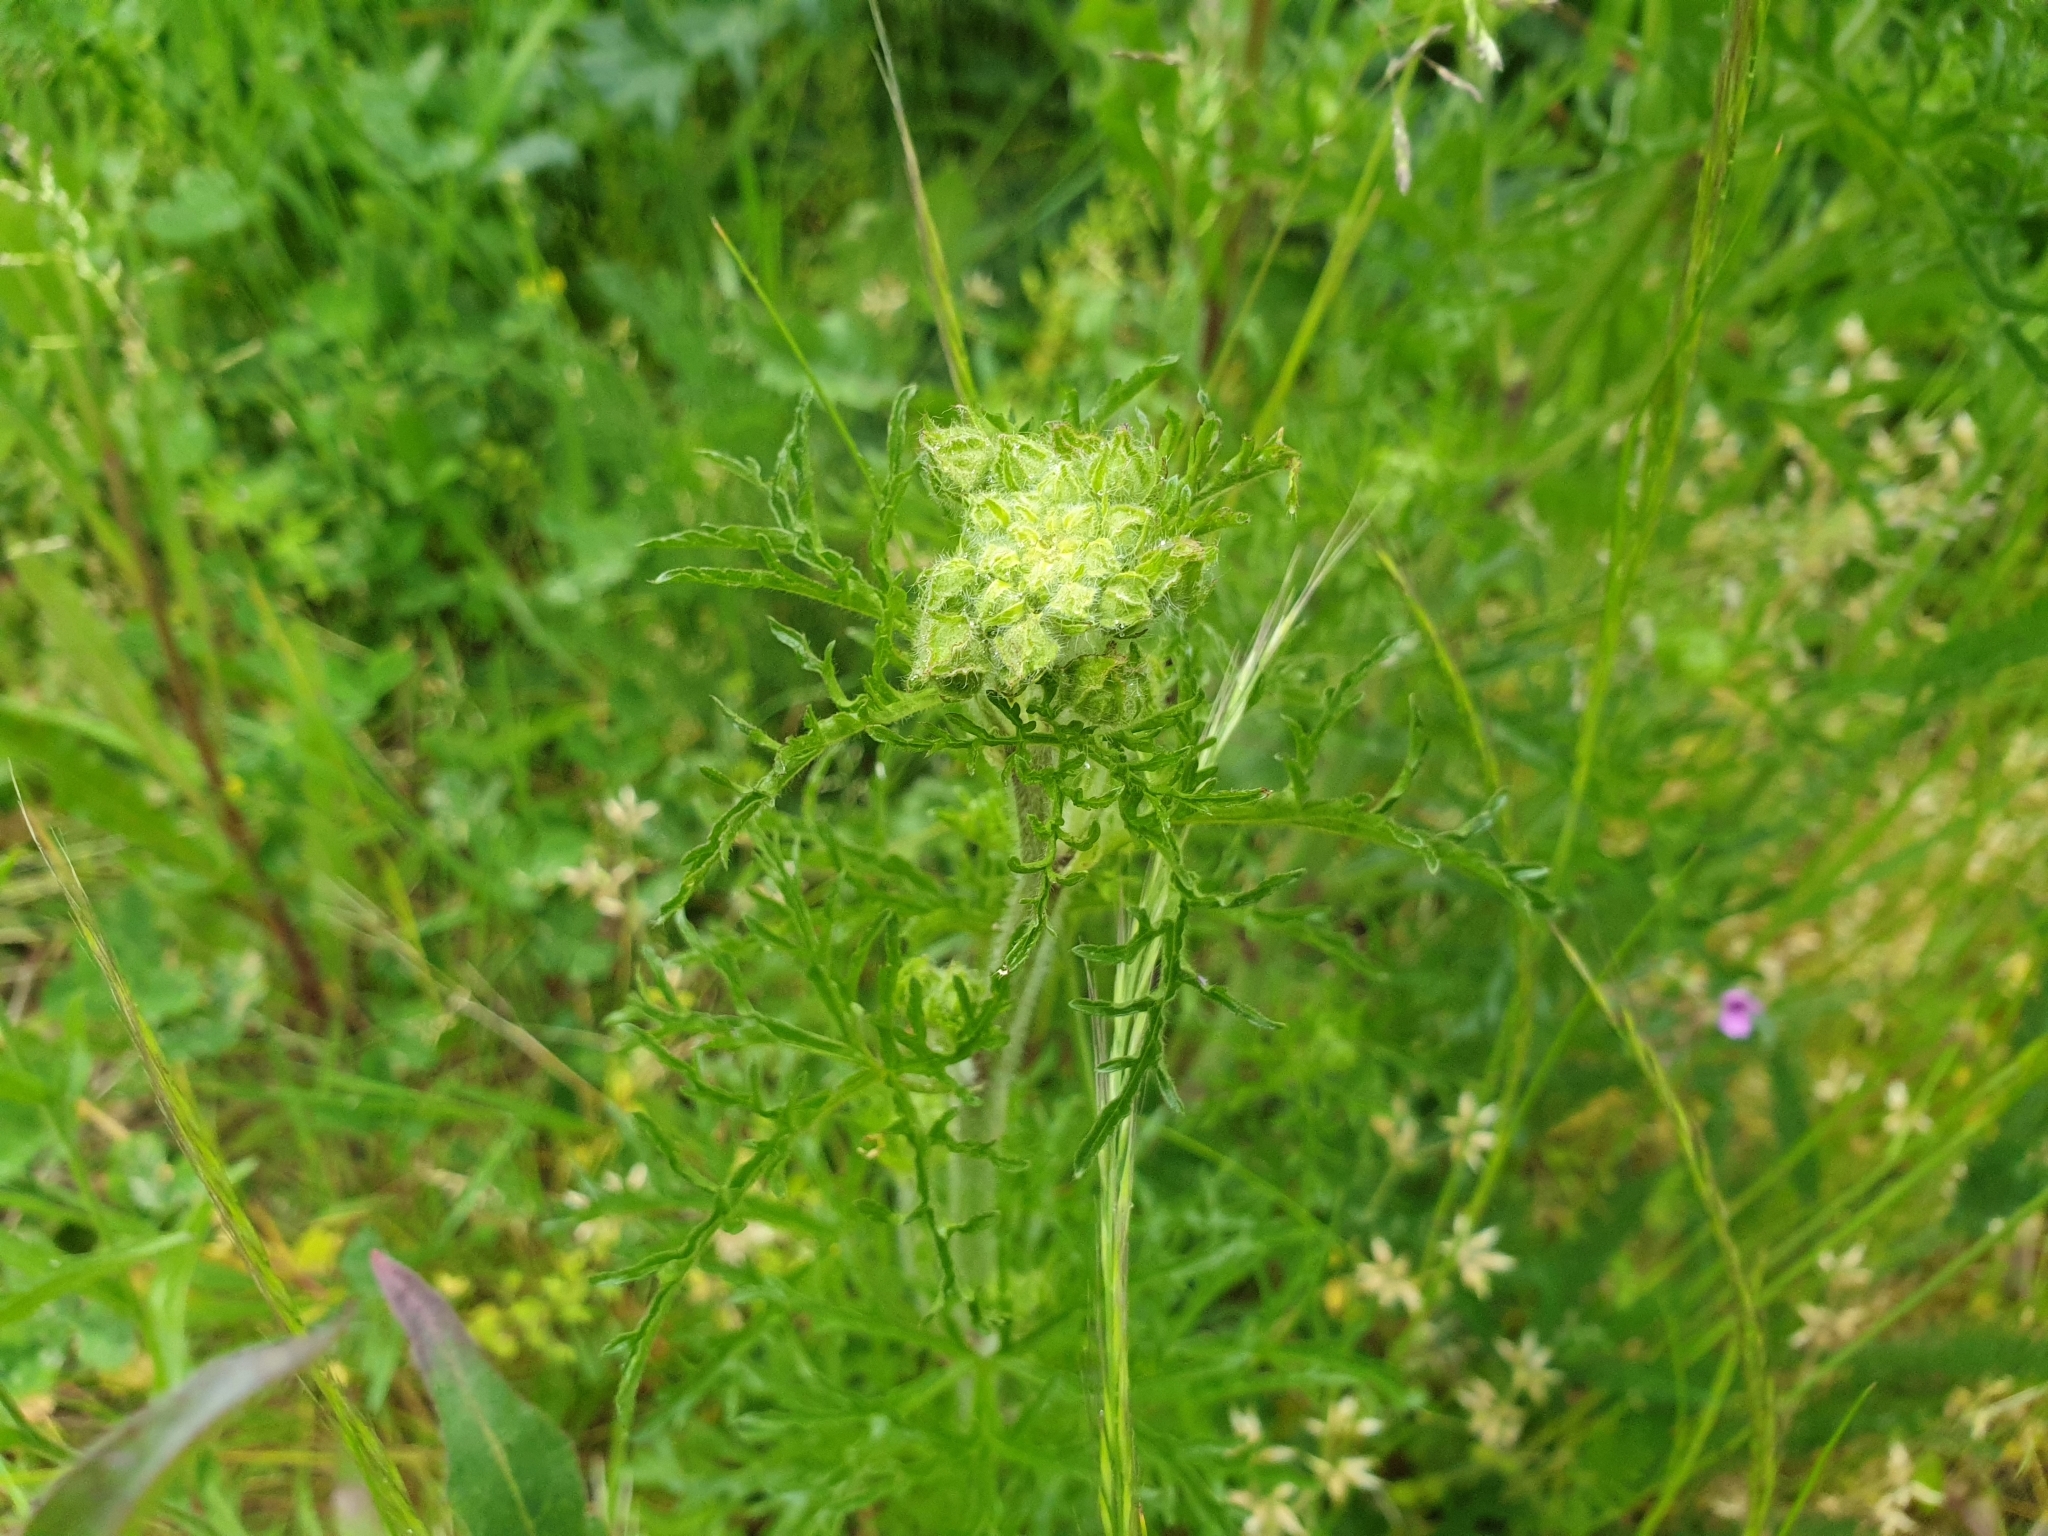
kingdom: Plantae
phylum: Tracheophyta
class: Magnoliopsida
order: Malvales
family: Malvaceae
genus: Malva
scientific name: Malva moschata
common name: Musk mallow
